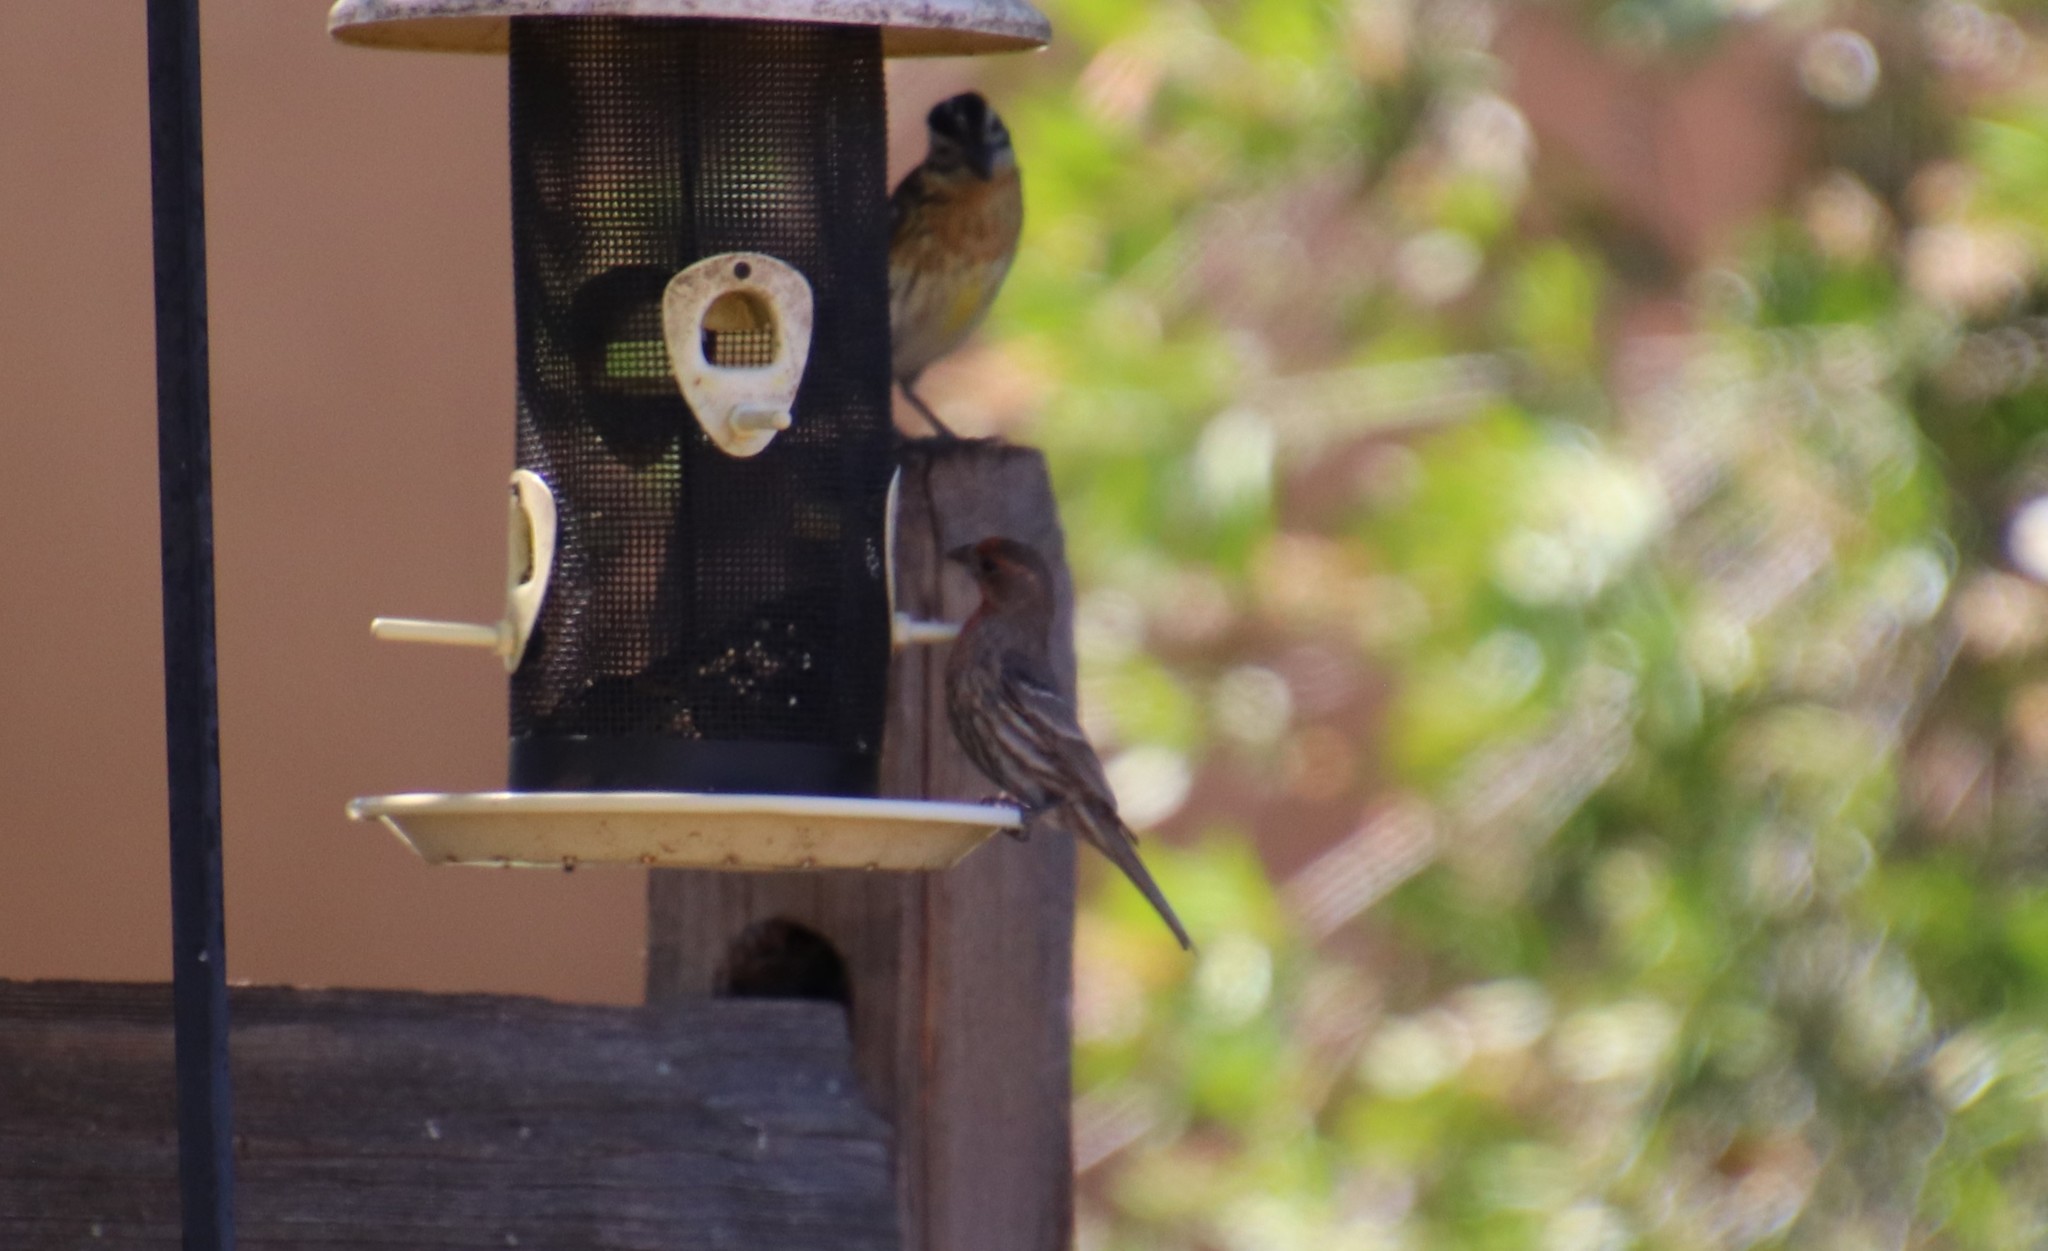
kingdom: Animalia
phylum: Chordata
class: Aves
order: Passeriformes
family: Fringillidae
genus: Haemorhous
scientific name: Haemorhous mexicanus
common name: House finch
